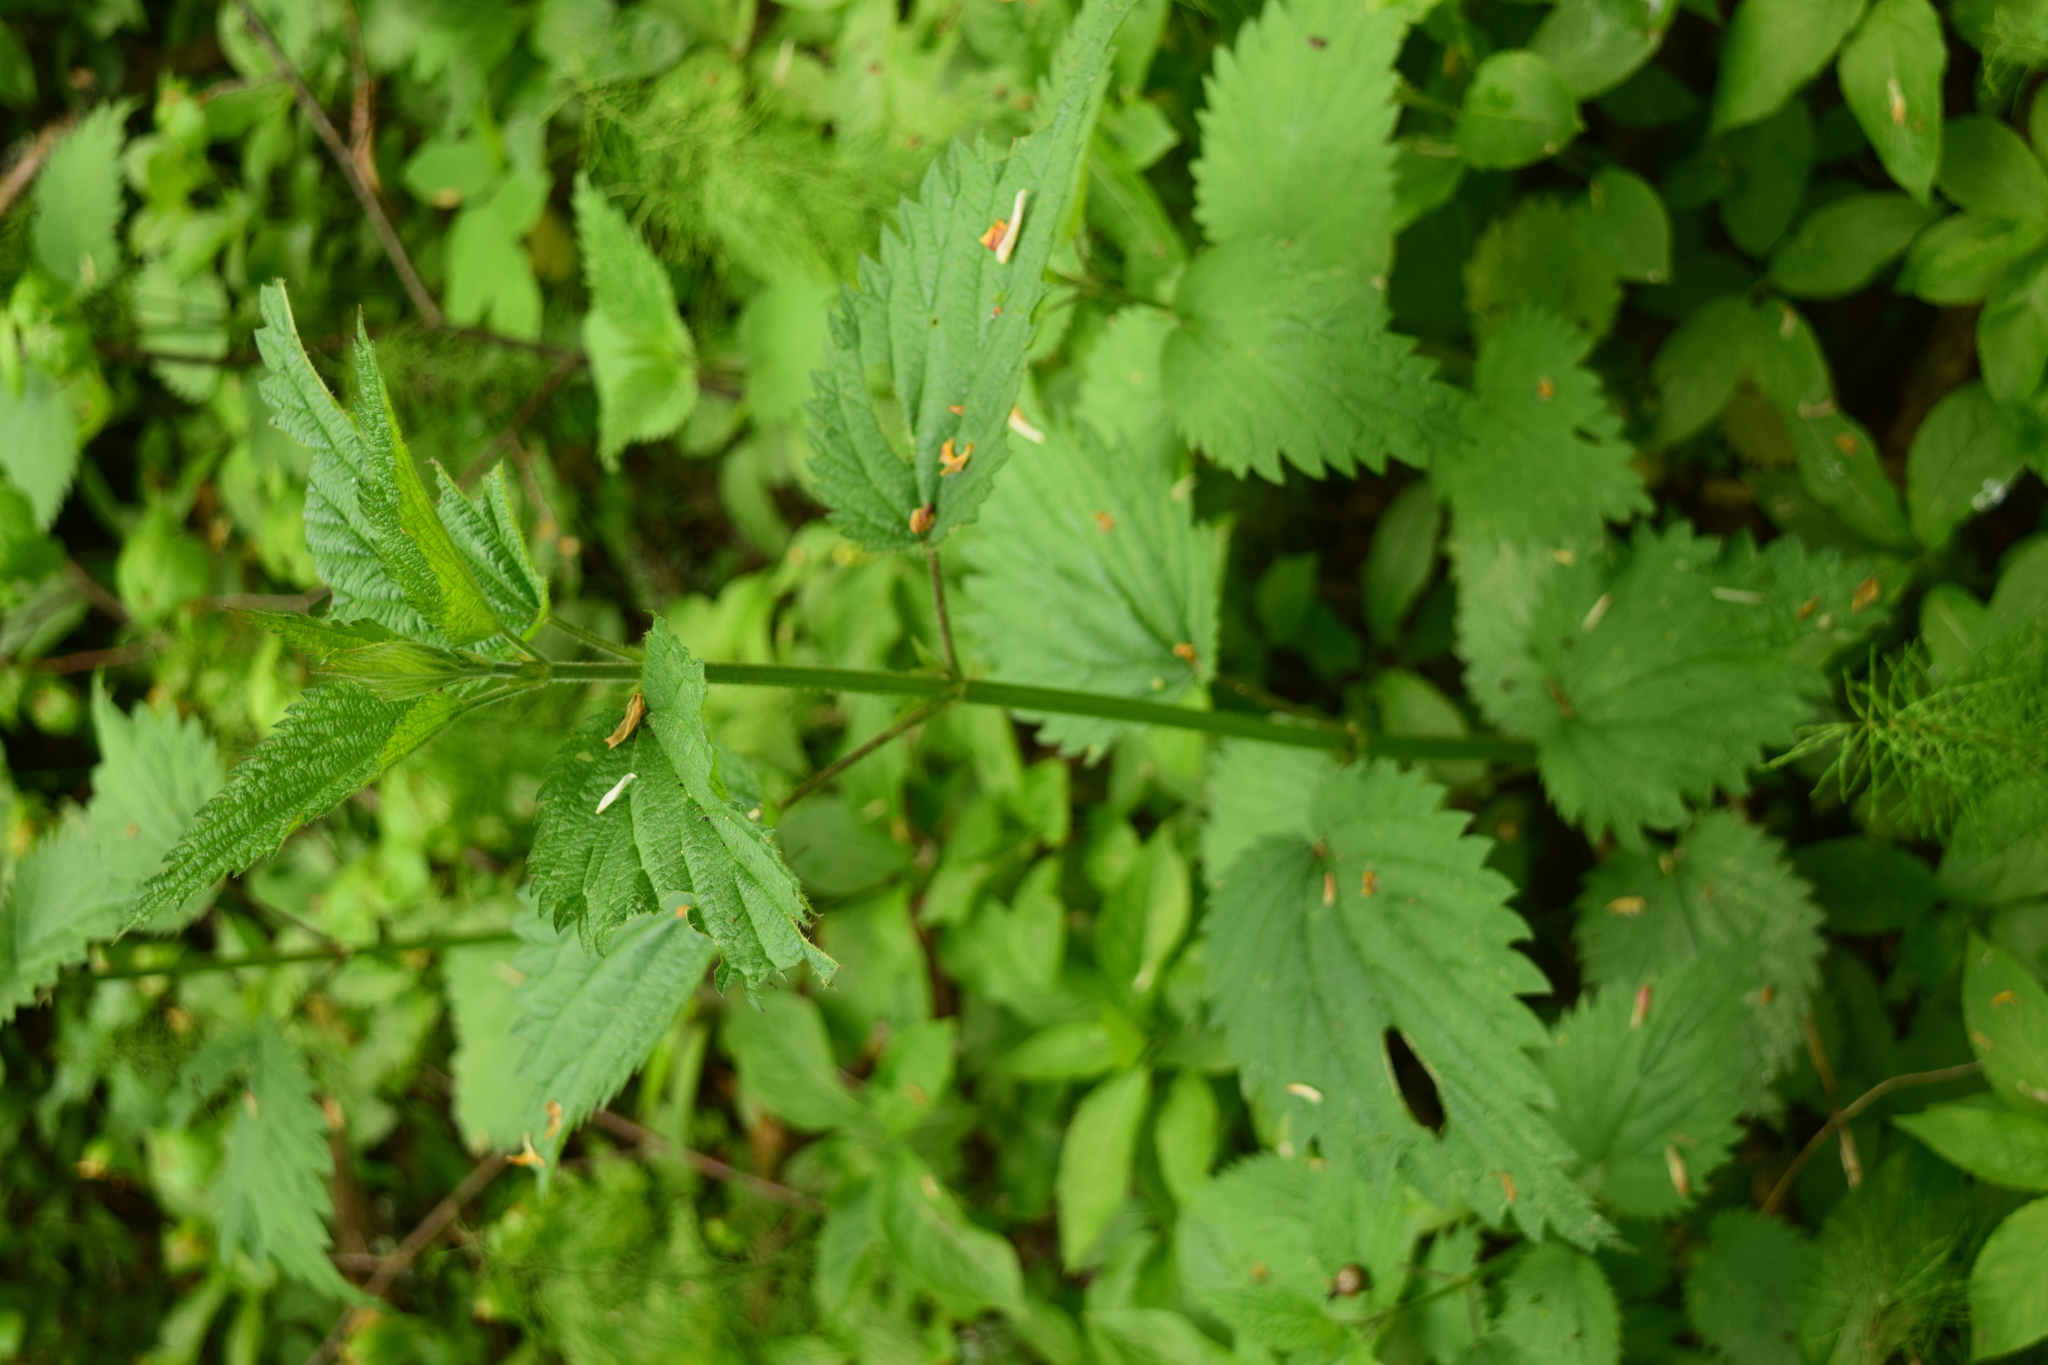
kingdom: Plantae
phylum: Tracheophyta
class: Magnoliopsida
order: Rosales
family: Urticaceae
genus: Urtica
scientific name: Urtica dioica
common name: Common nettle
